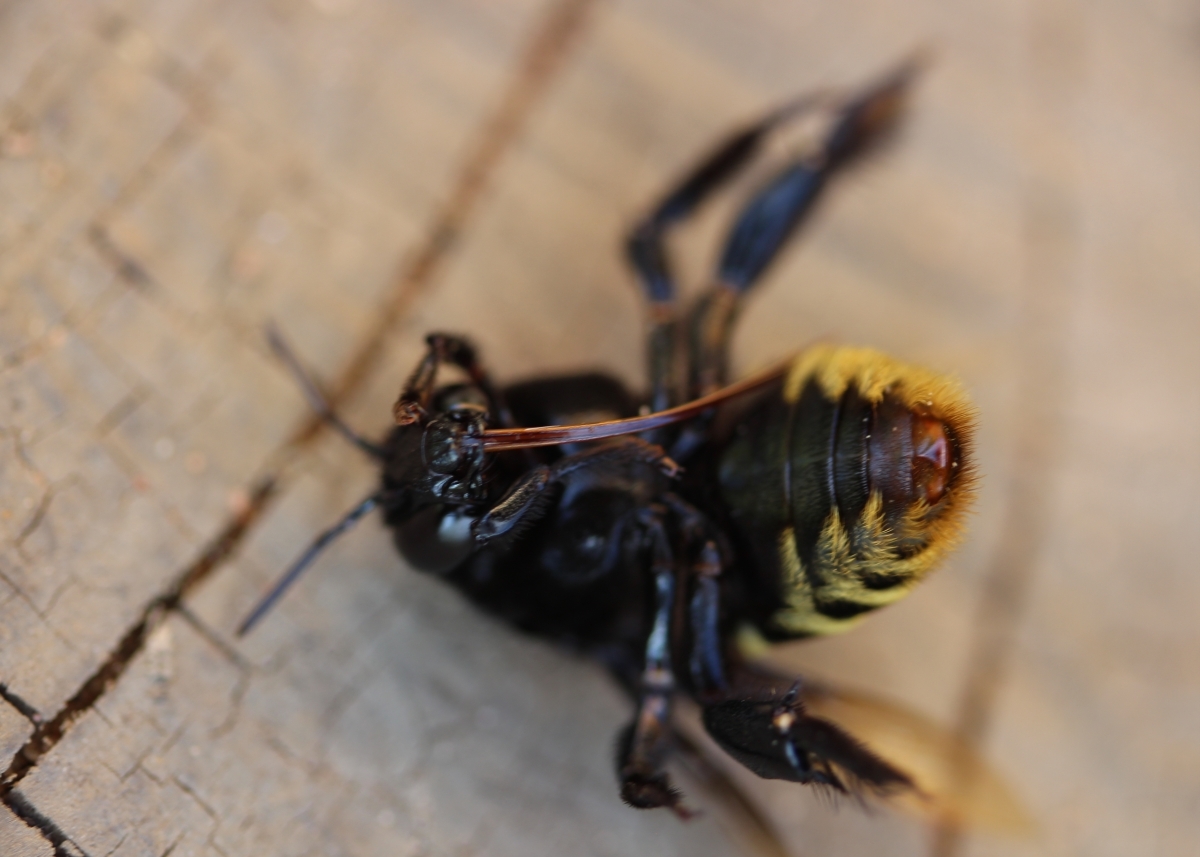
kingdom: Animalia
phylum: Arthropoda
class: Insecta
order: Hymenoptera
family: Apidae
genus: Eulaema
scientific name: Eulaema
